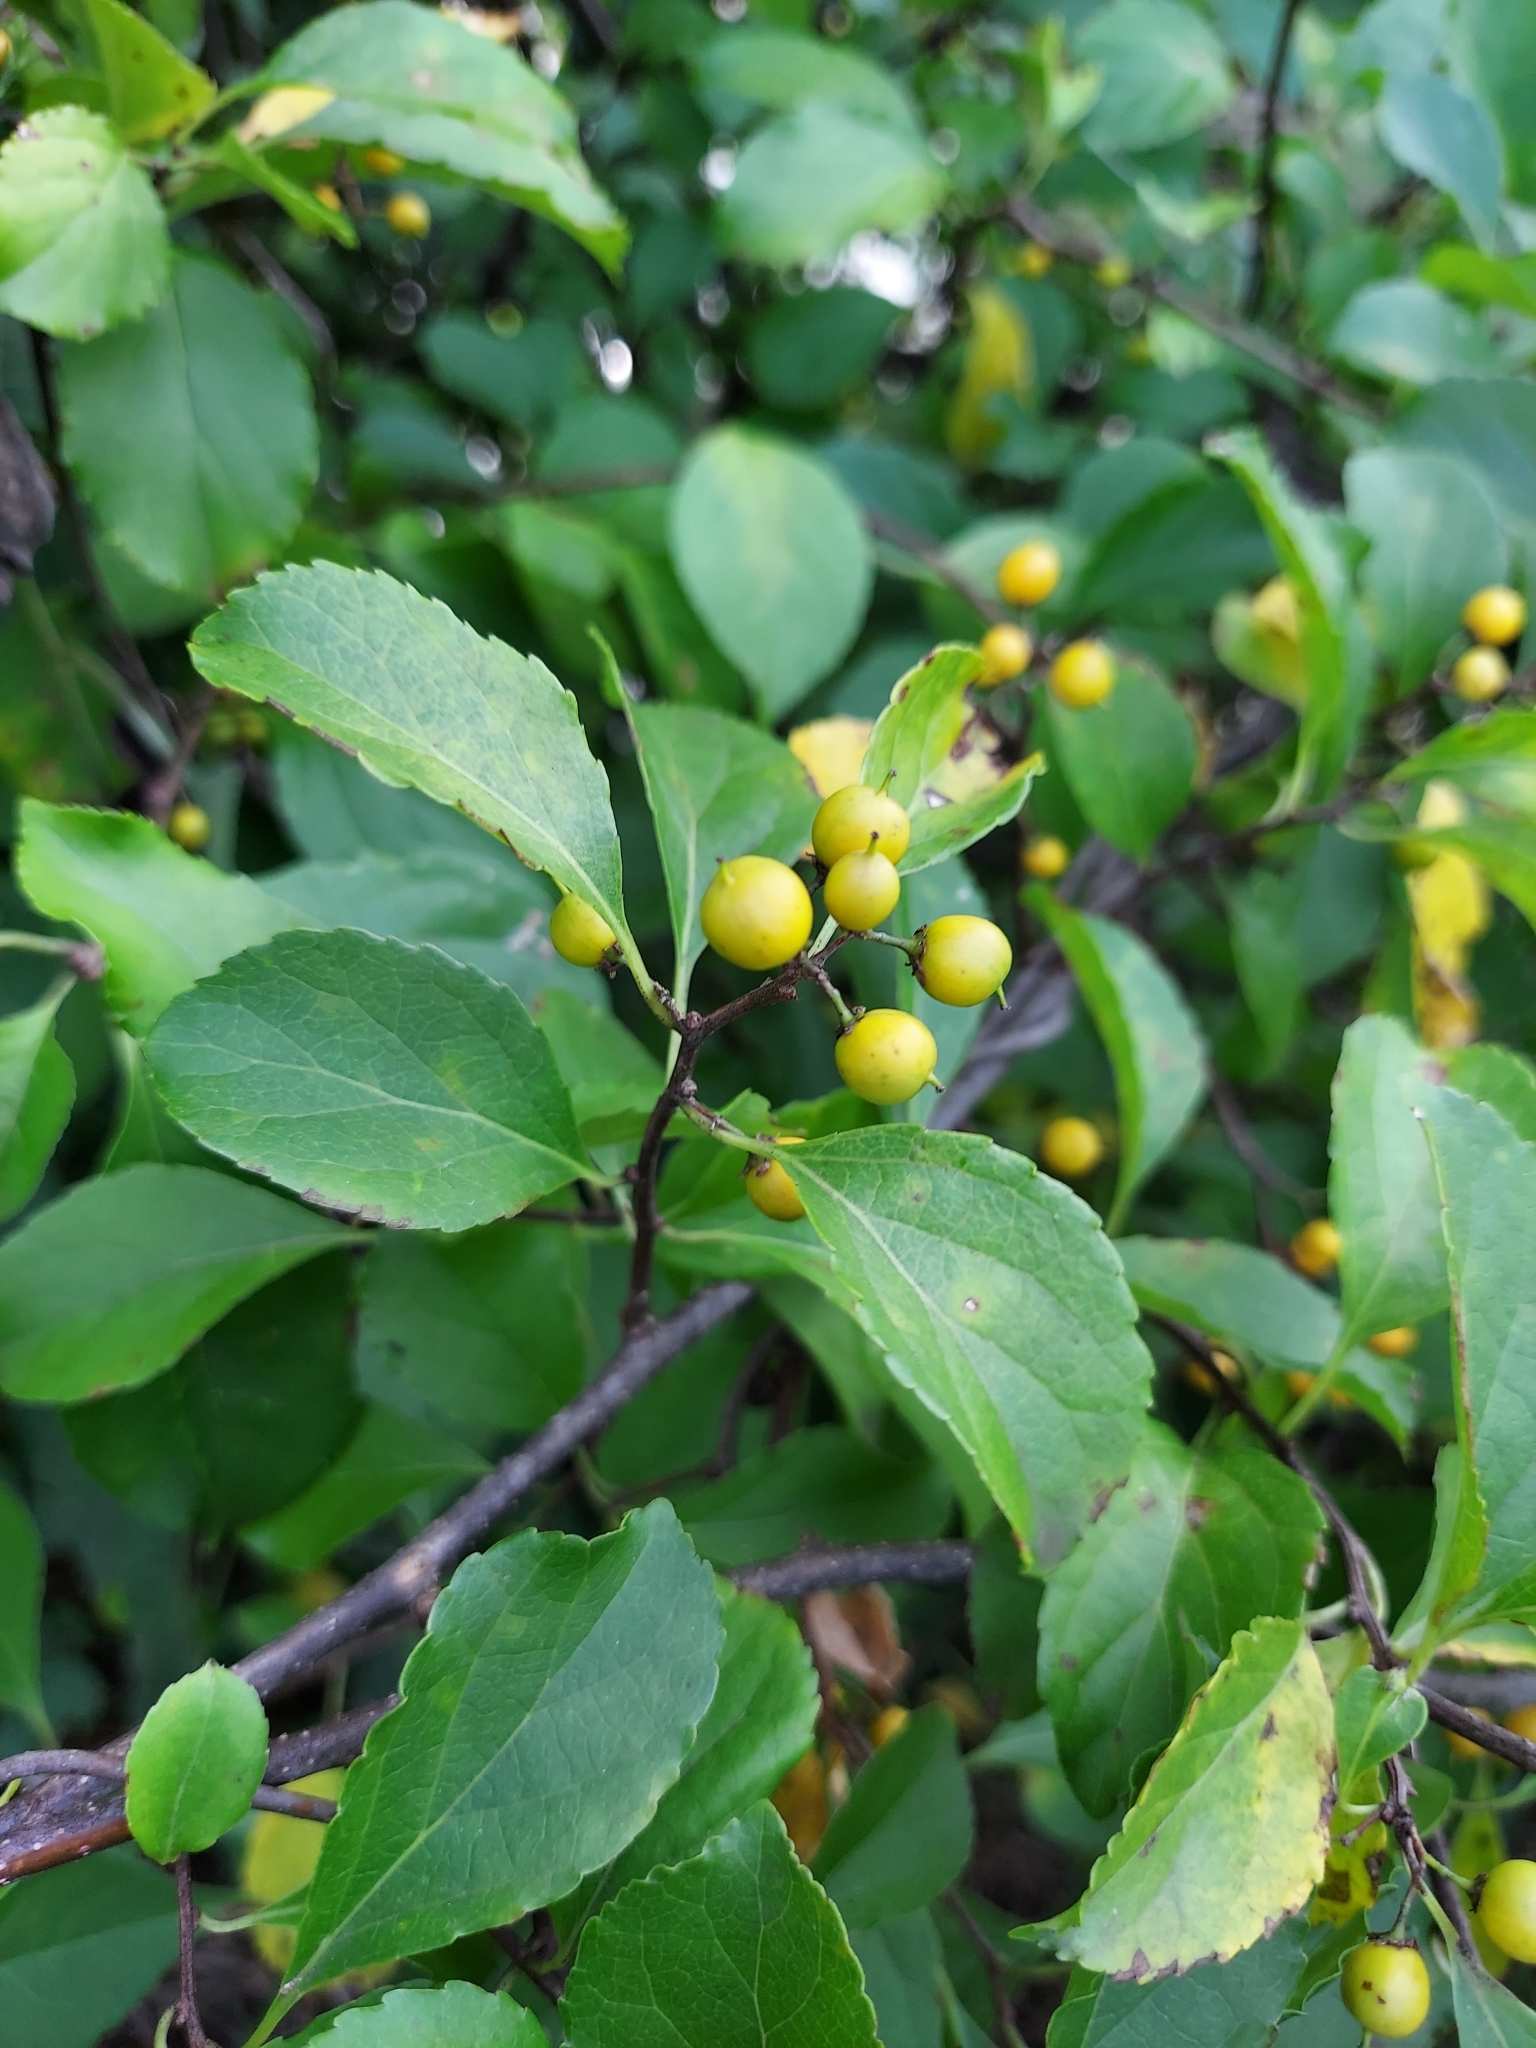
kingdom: Plantae
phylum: Tracheophyta
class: Magnoliopsida
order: Celastrales
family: Celastraceae
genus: Celastrus
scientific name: Celastrus orbiculatus
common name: Oriental bittersweet
